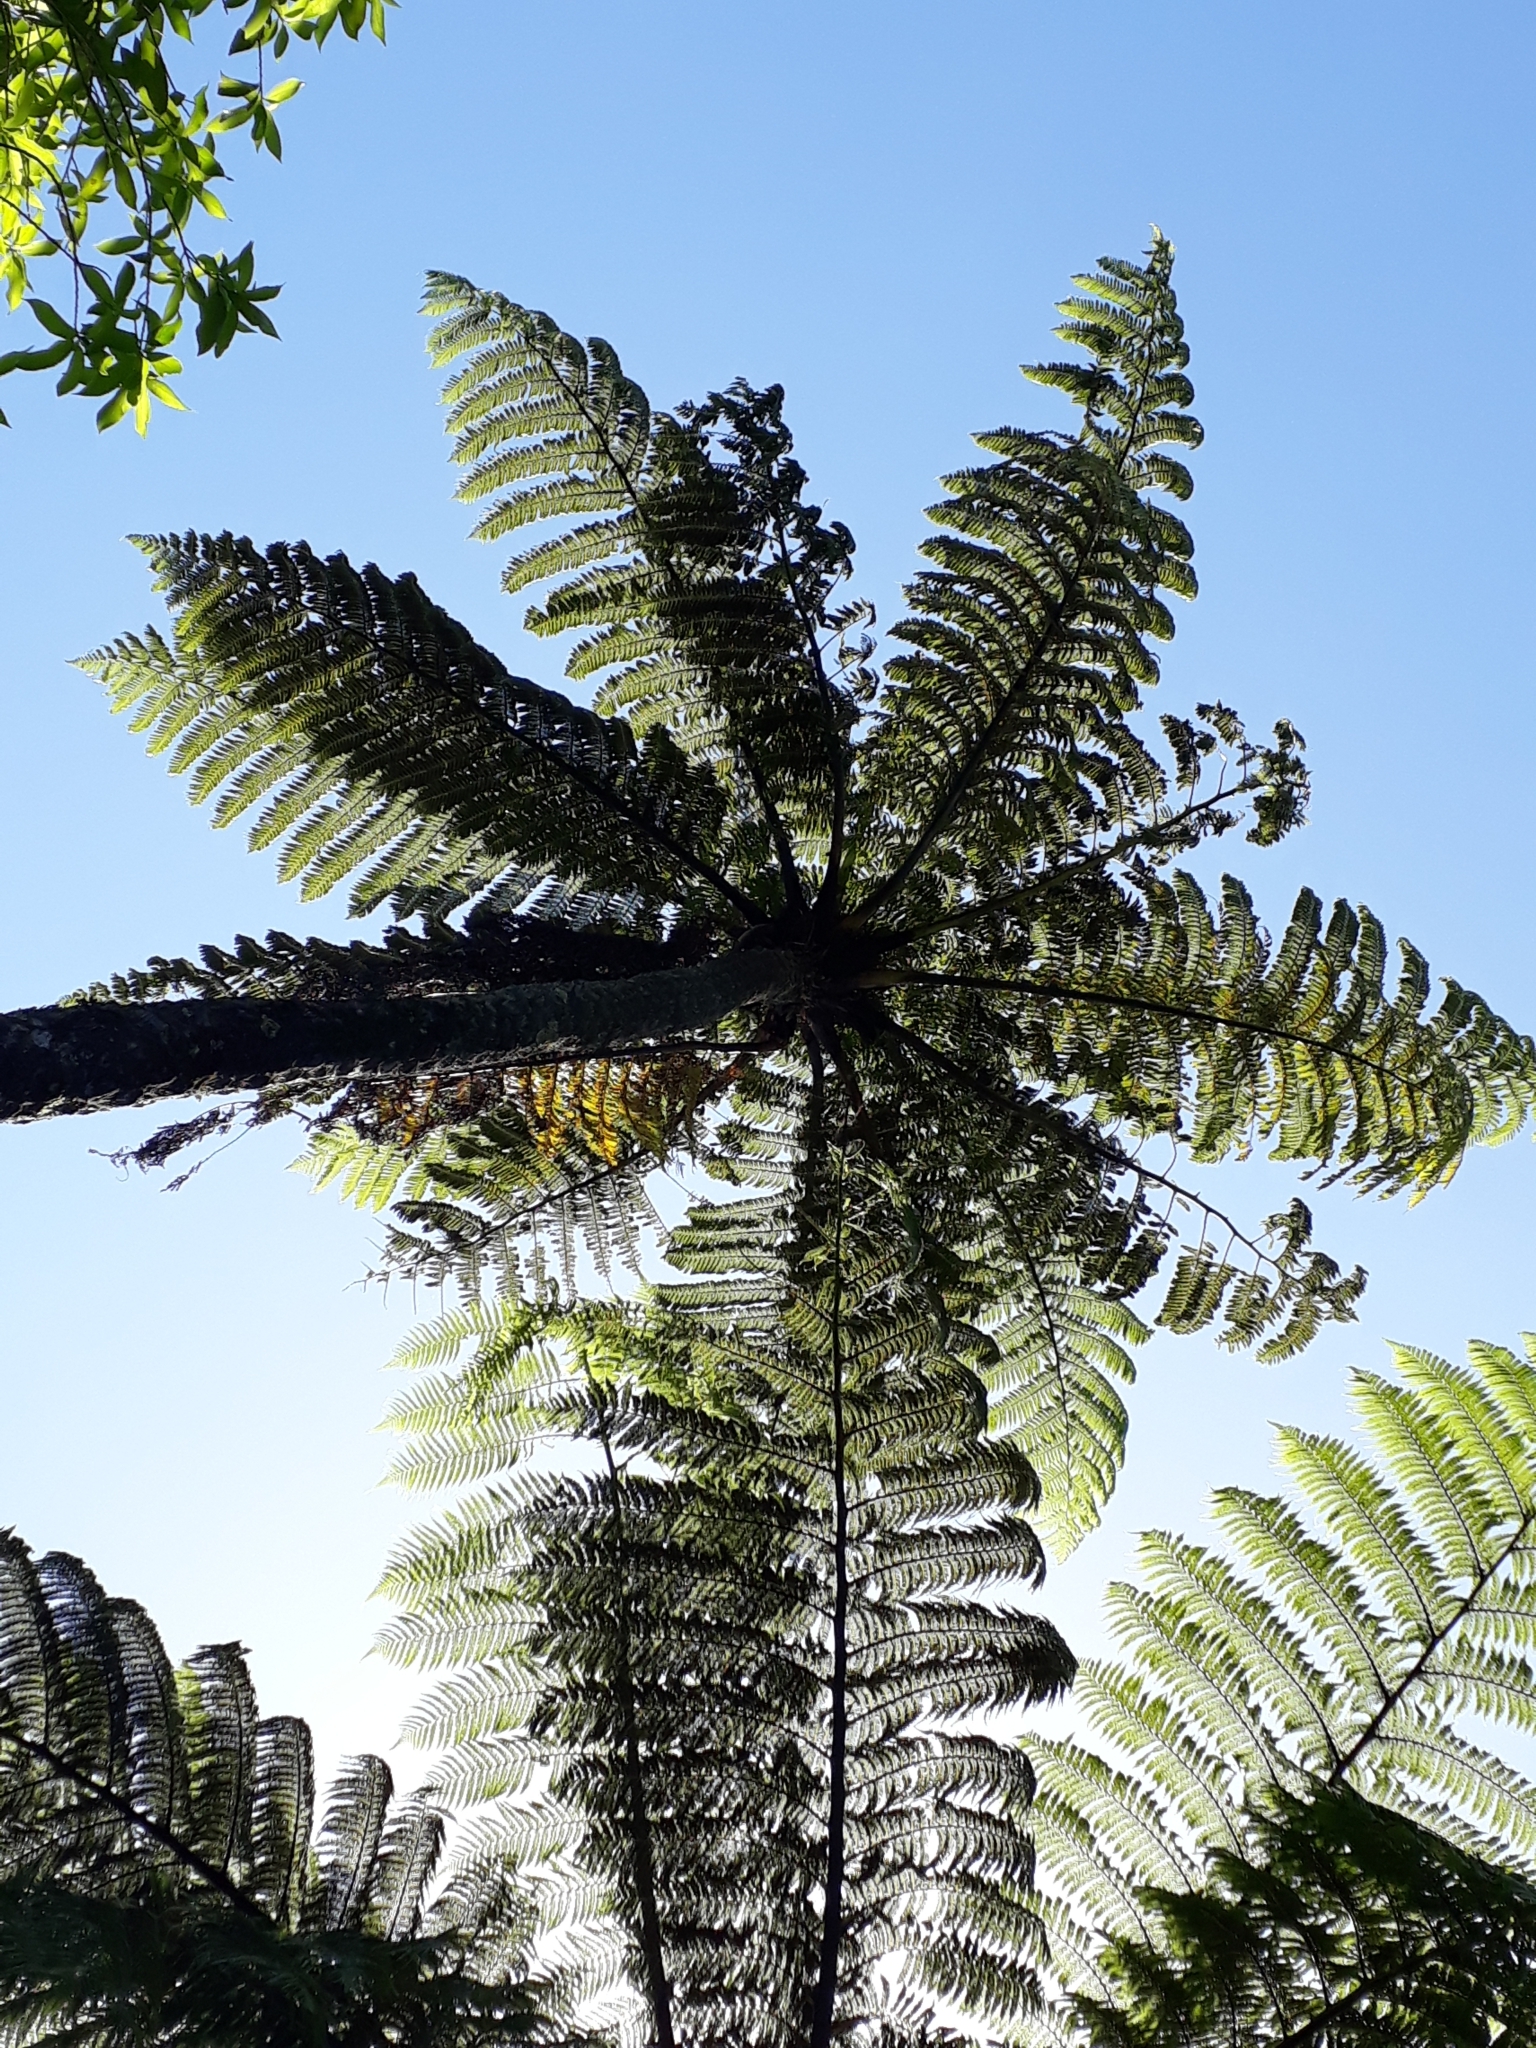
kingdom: Plantae
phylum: Tracheophyta
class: Polypodiopsida
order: Cyatheales
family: Cyatheaceae
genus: Sphaeropteris
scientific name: Sphaeropteris medullaris
